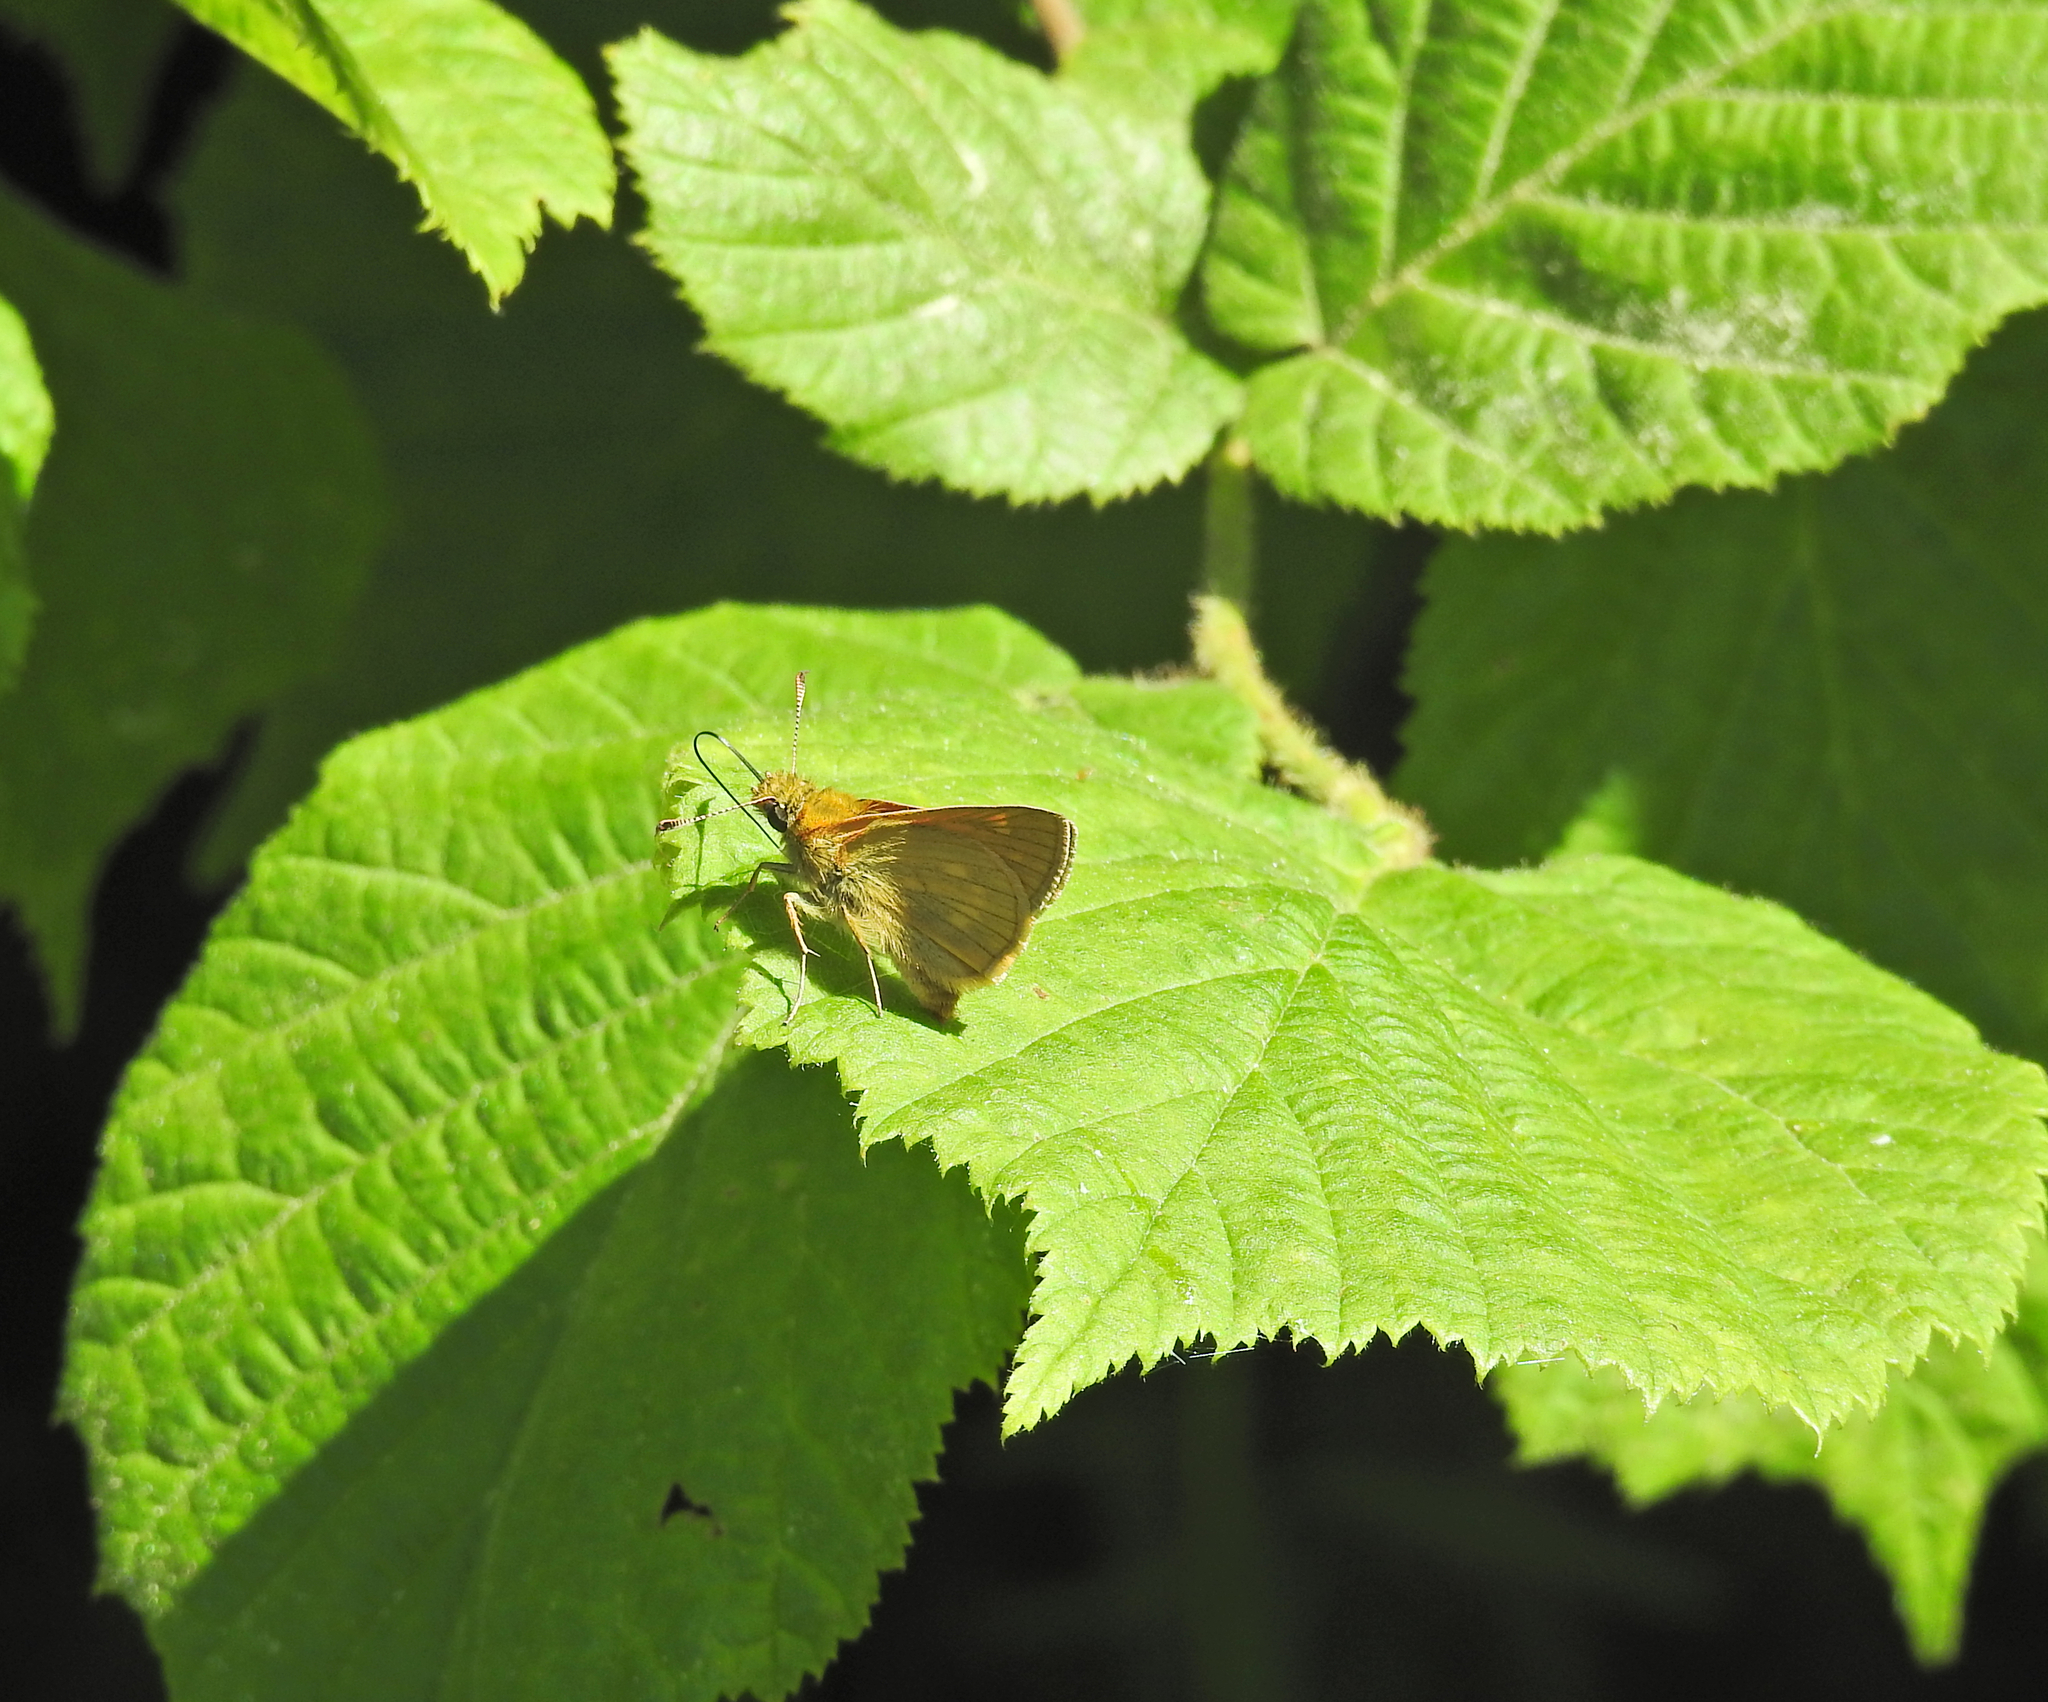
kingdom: Animalia
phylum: Arthropoda
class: Insecta
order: Lepidoptera
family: Hesperiidae
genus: Ochlodes
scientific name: Ochlodes venata
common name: Large skipper
